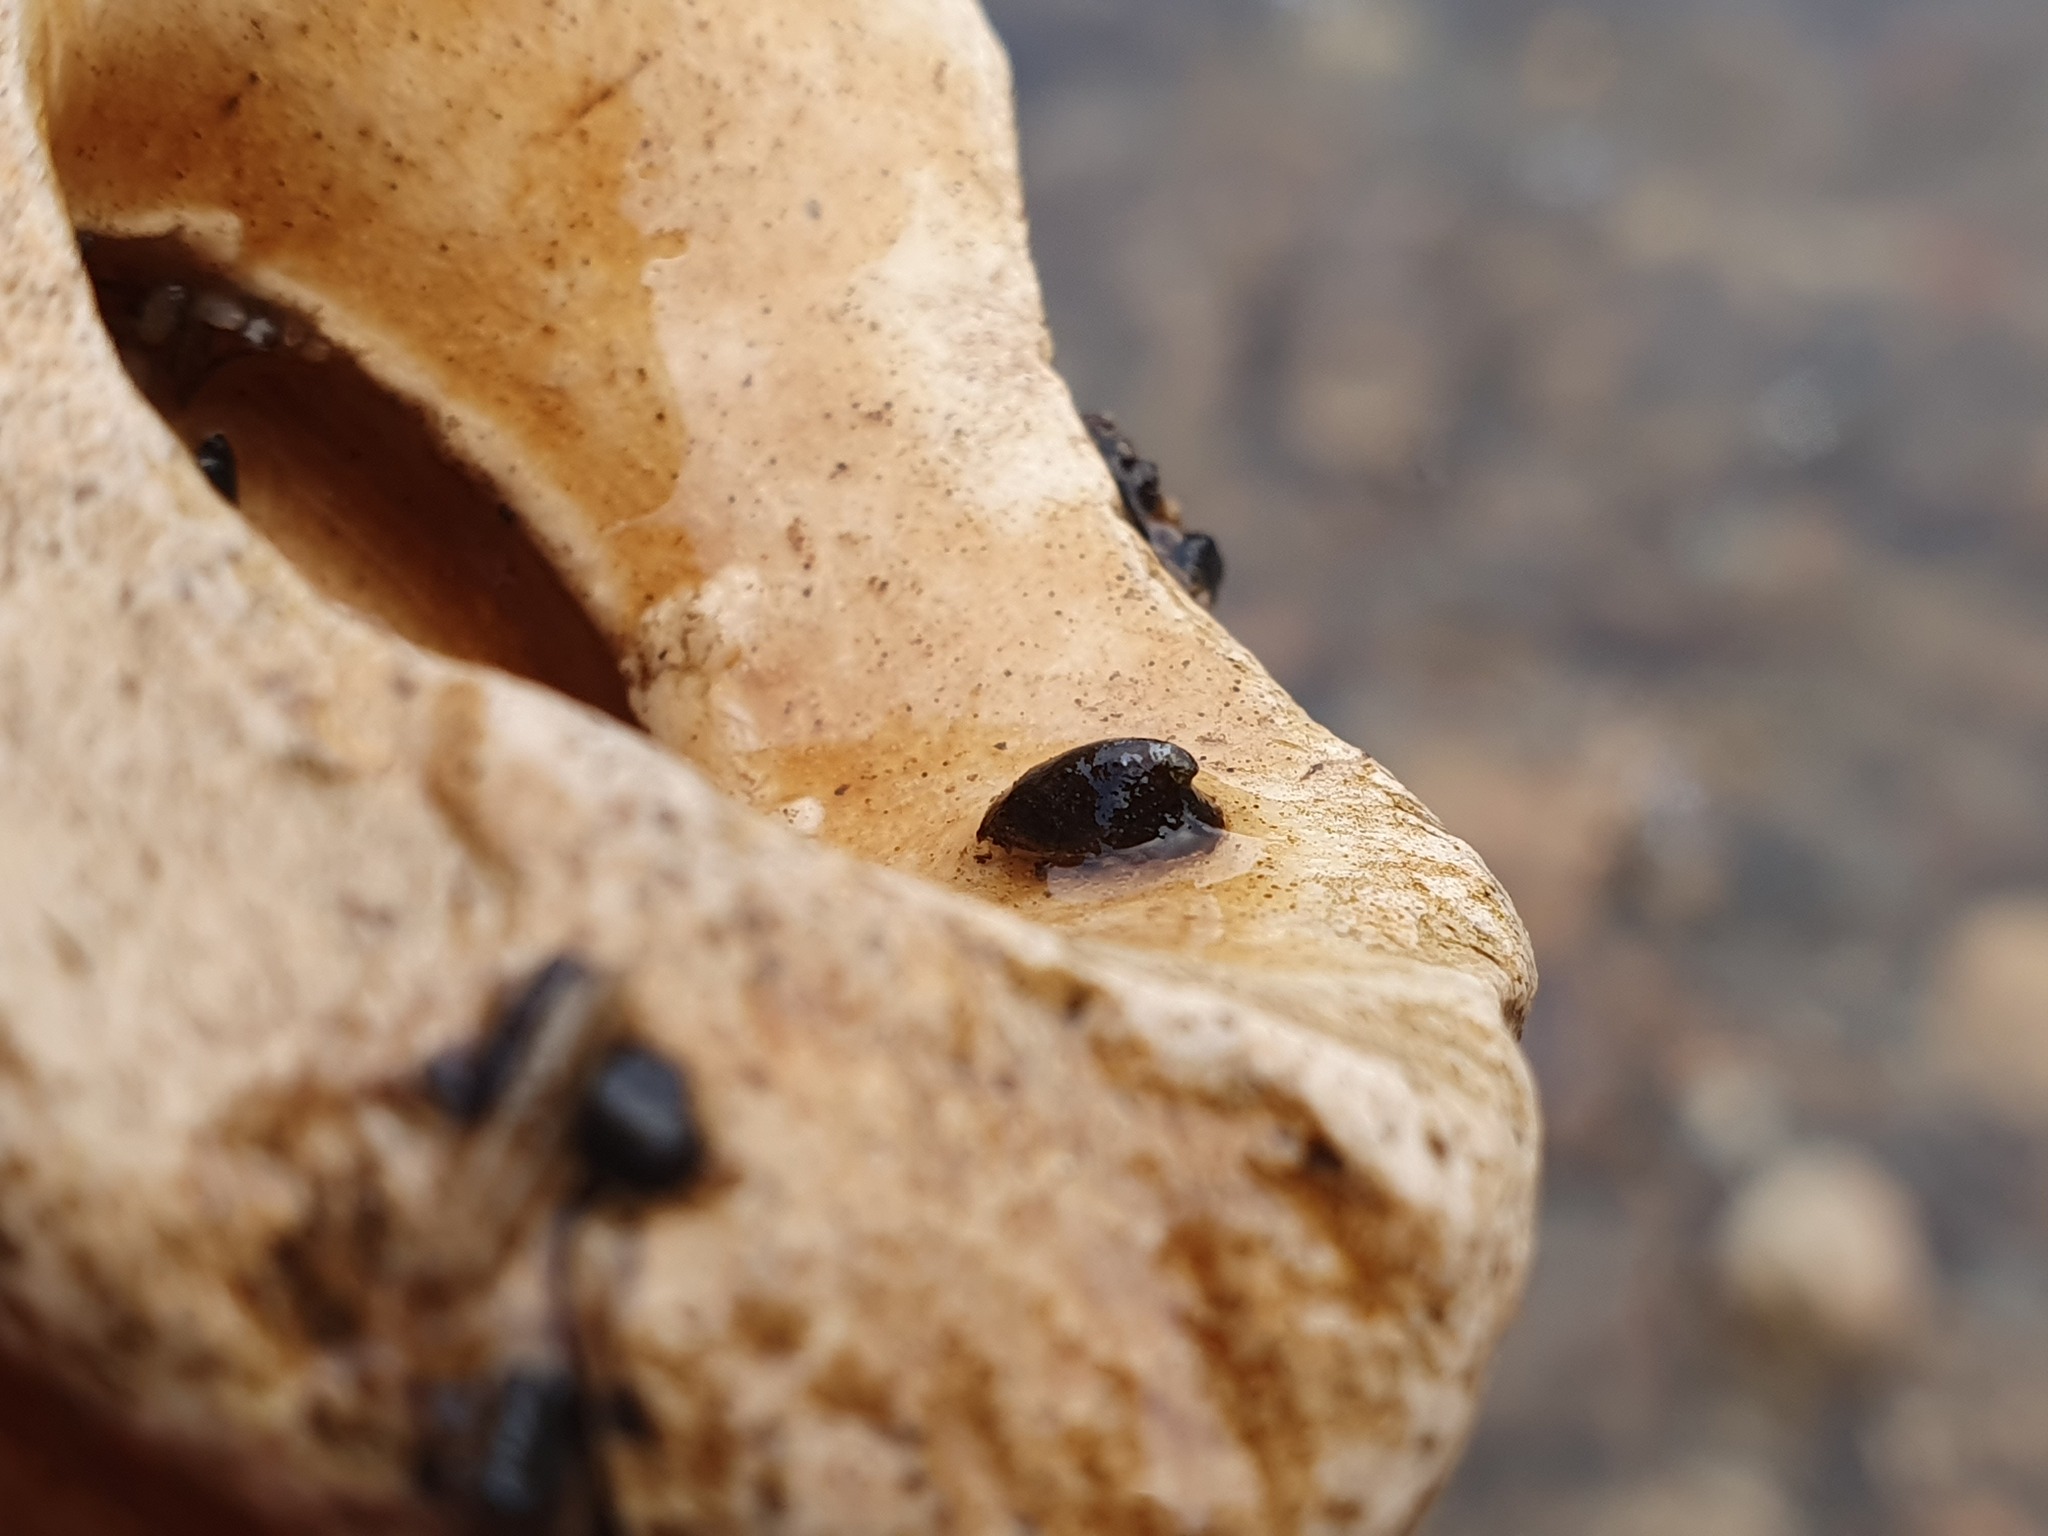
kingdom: Animalia
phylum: Mollusca
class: Gastropoda
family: Planorbidae
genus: Ancylus
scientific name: Ancylus fluviatilis
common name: River limpet
